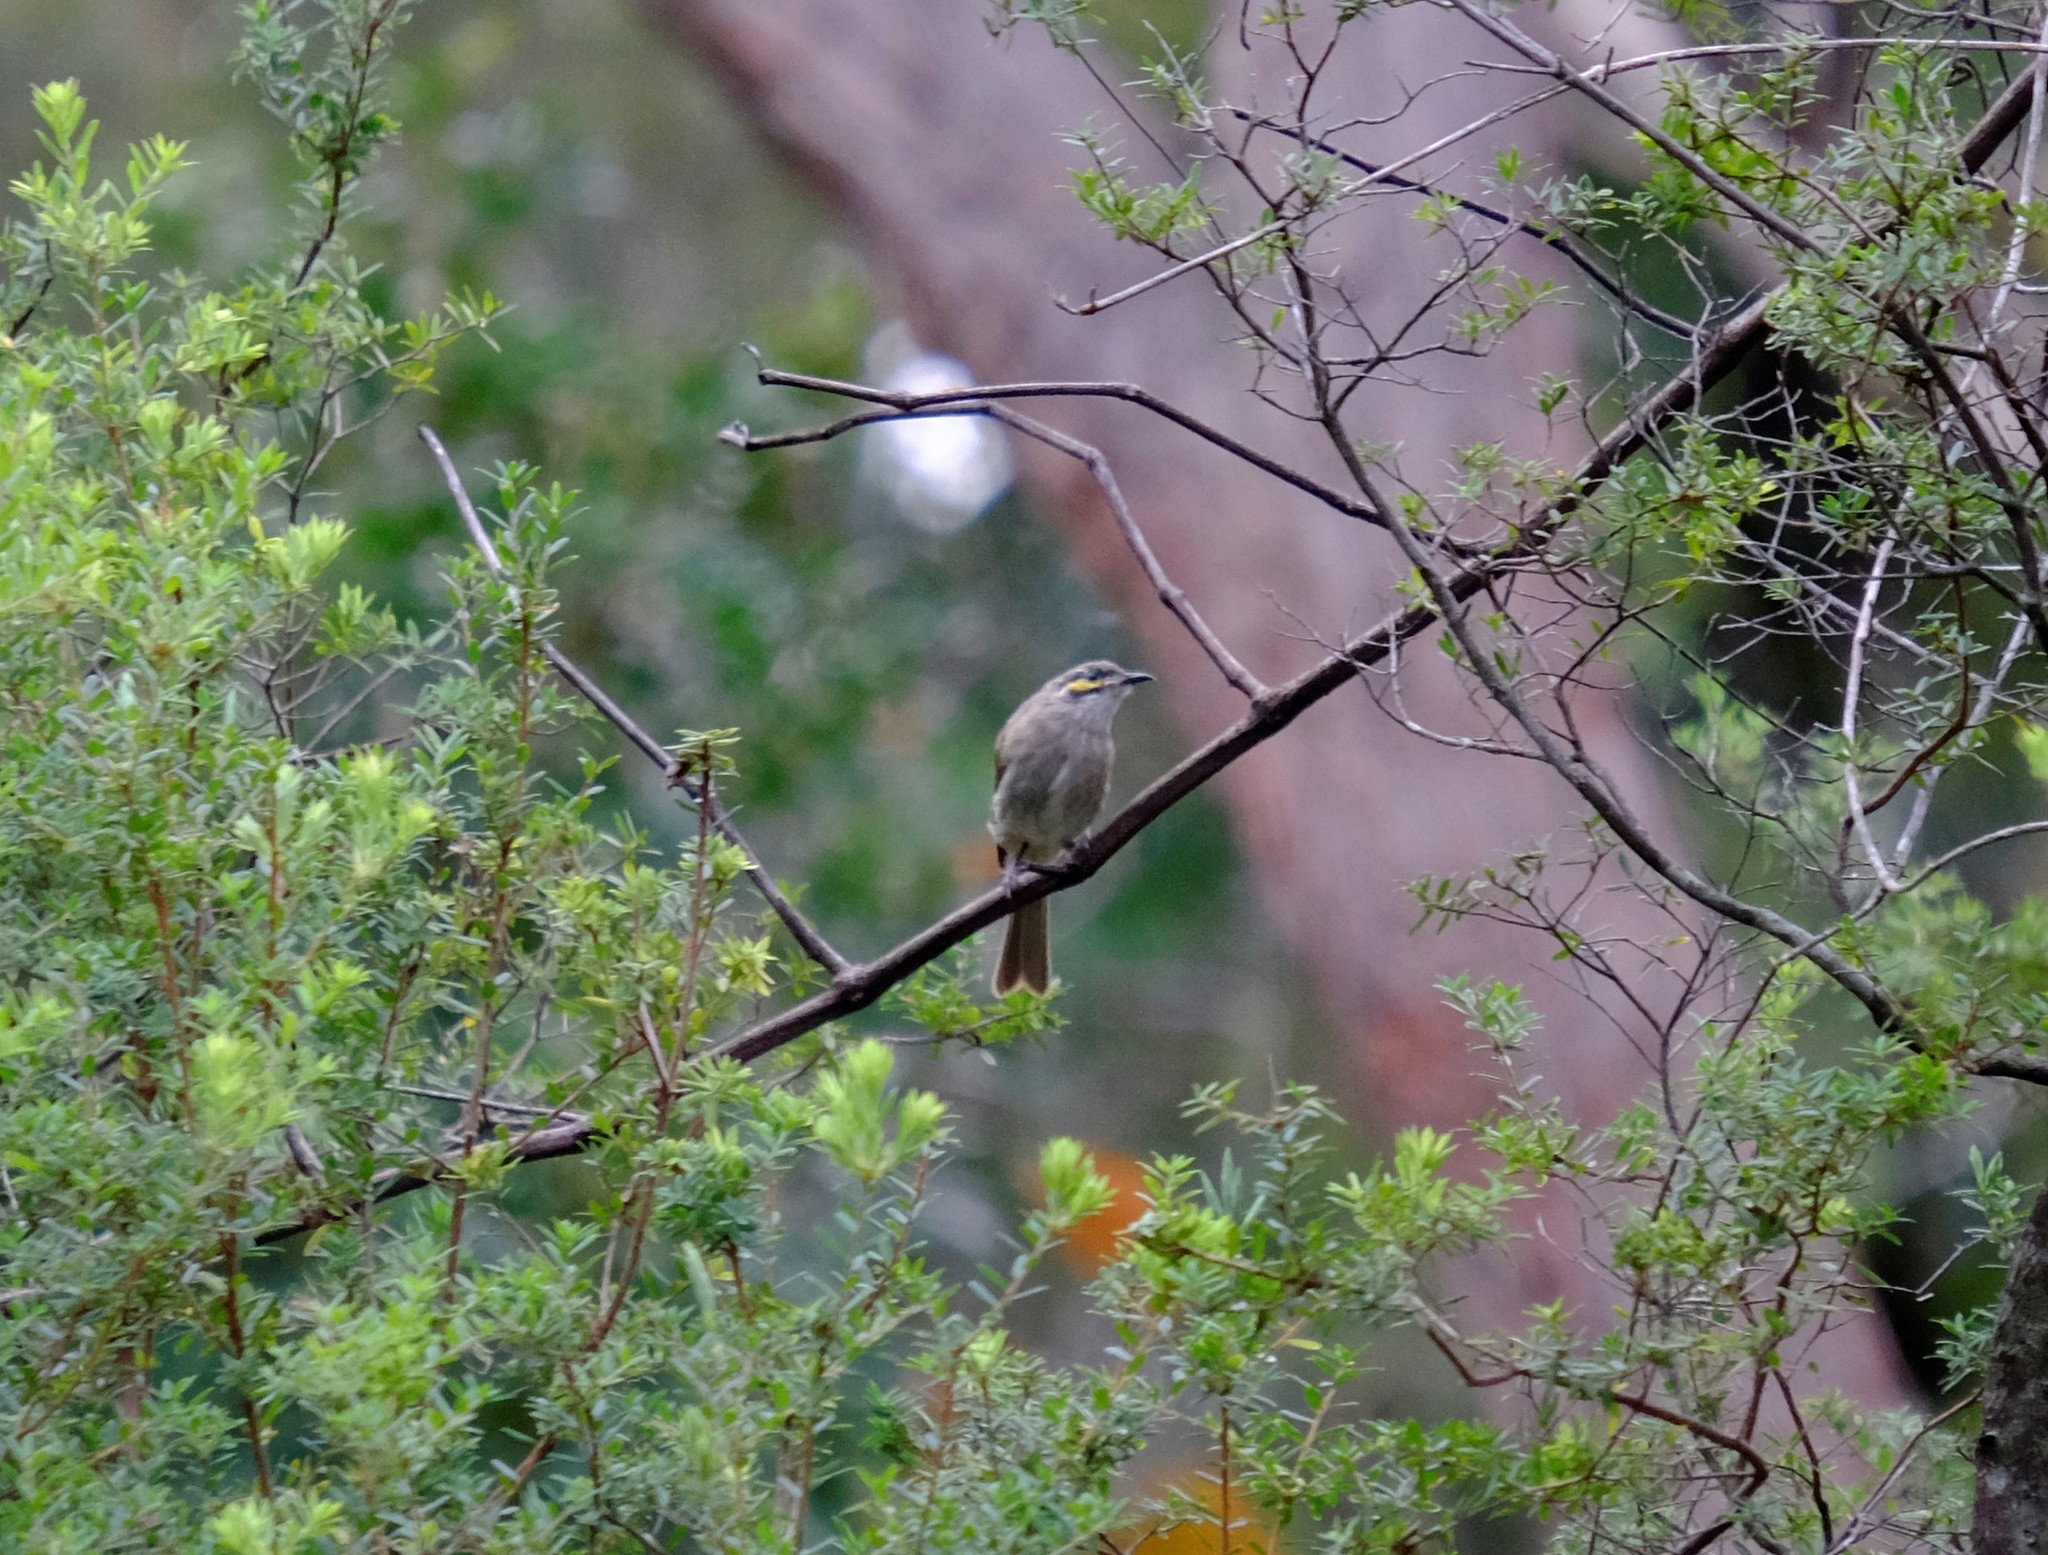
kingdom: Animalia
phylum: Chordata
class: Aves
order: Passeriformes
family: Meliphagidae
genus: Caligavis
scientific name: Caligavis chrysops
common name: Yellow-faced honeyeater
